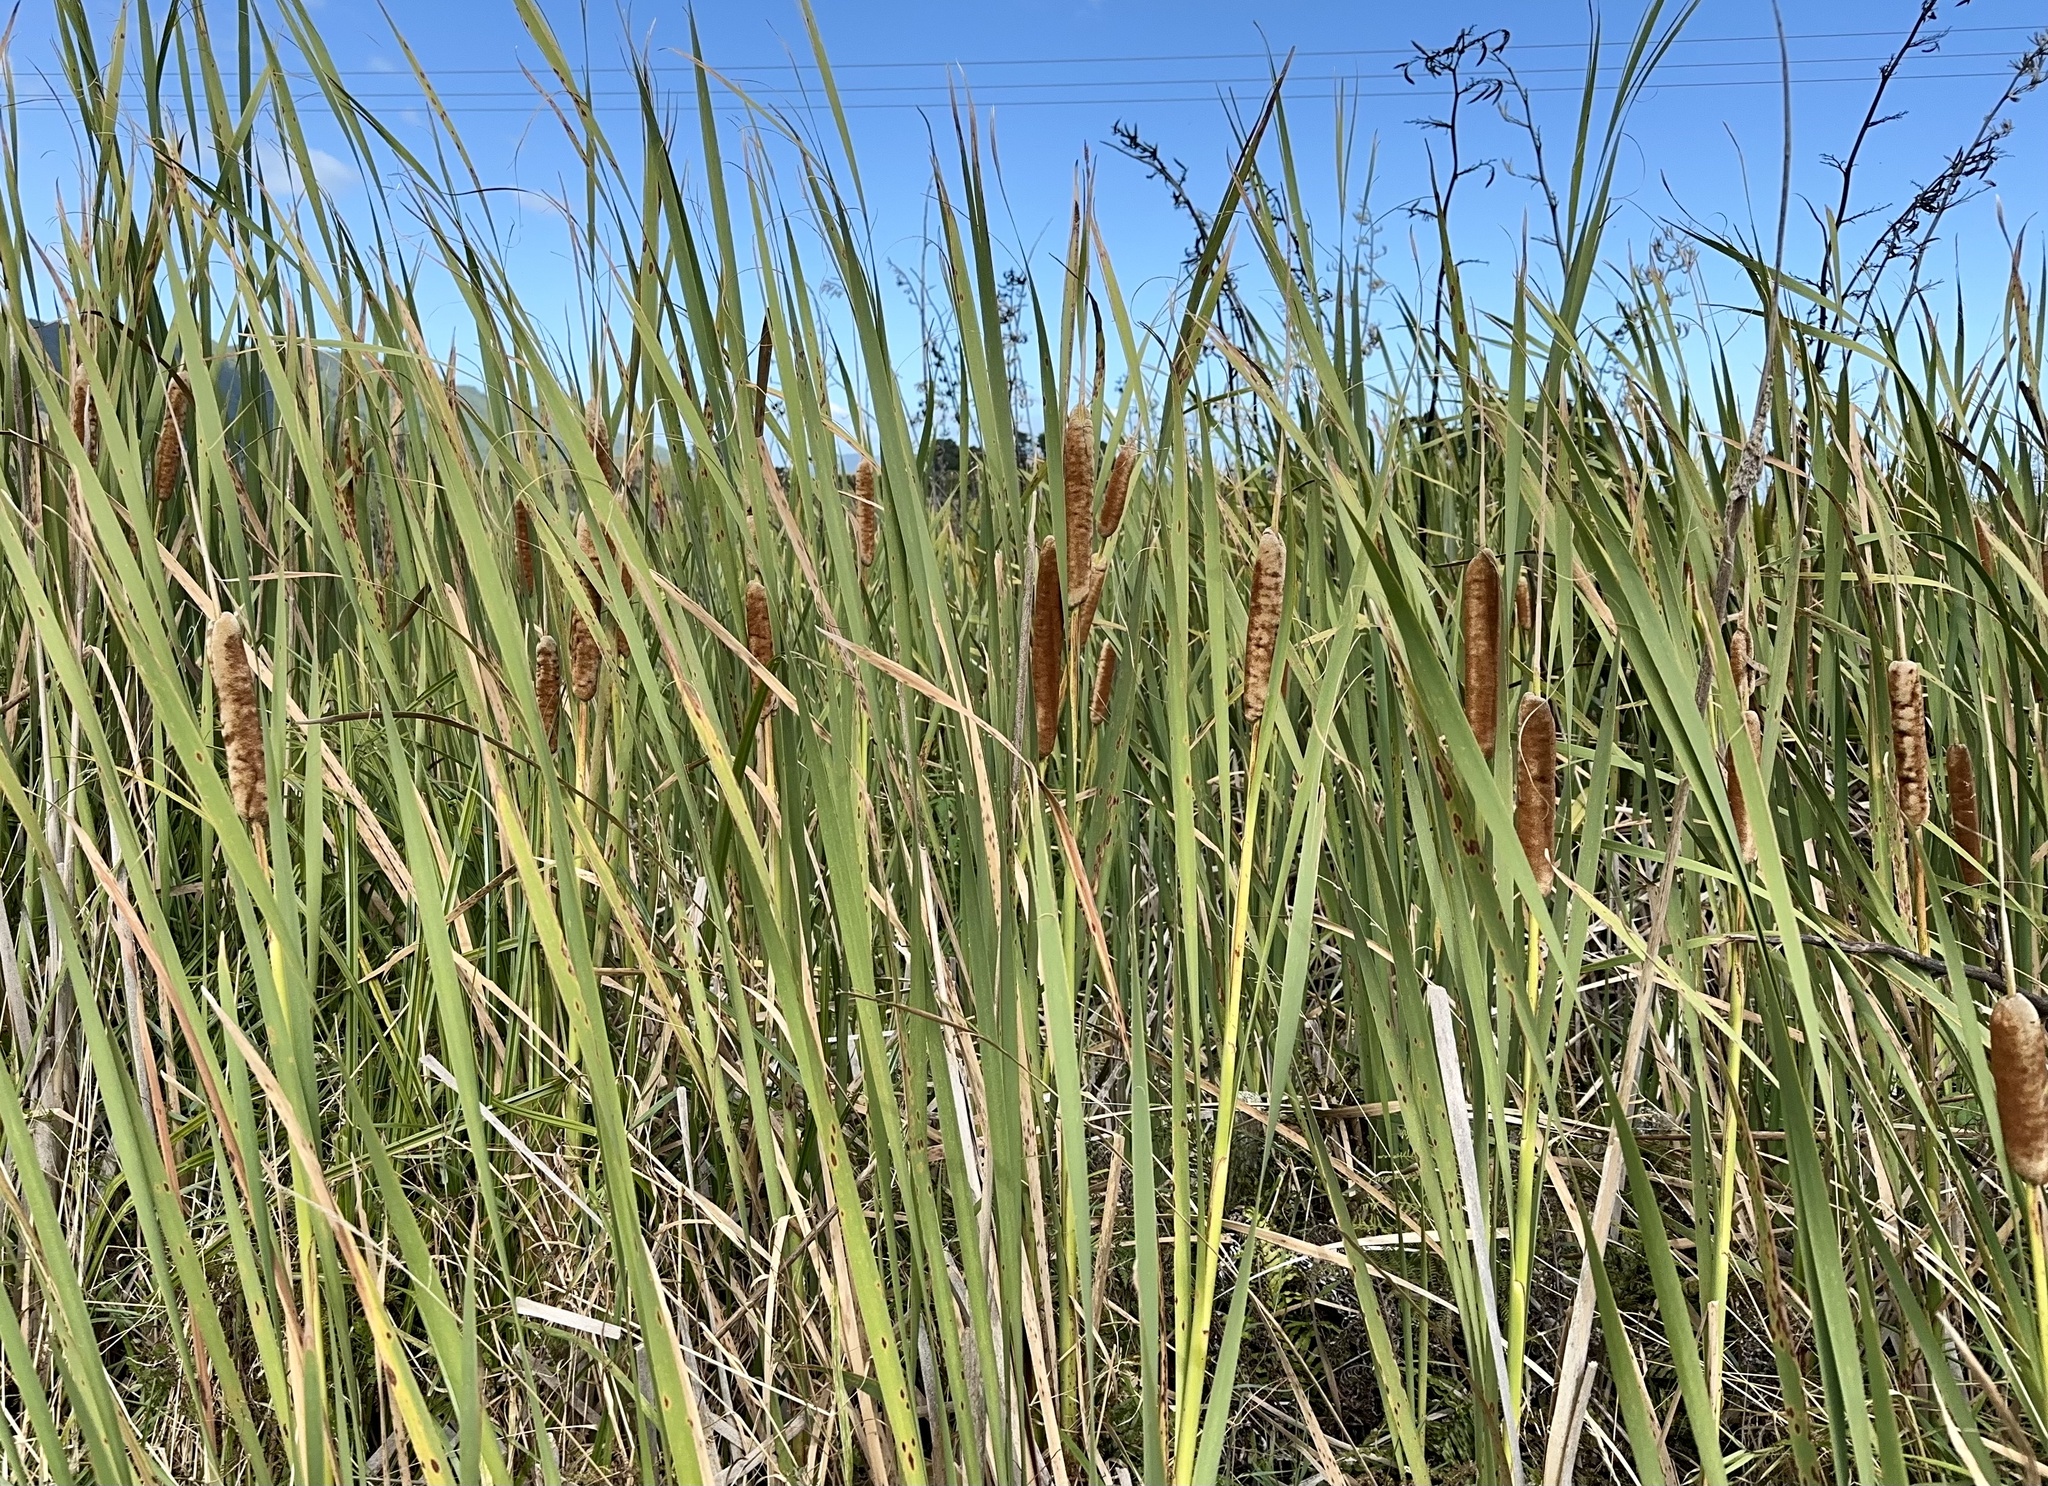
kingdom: Plantae
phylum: Tracheophyta
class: Liliopsida
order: Poales
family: Typhaceae
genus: Typha
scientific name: Typha orientalis
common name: Bullrush
